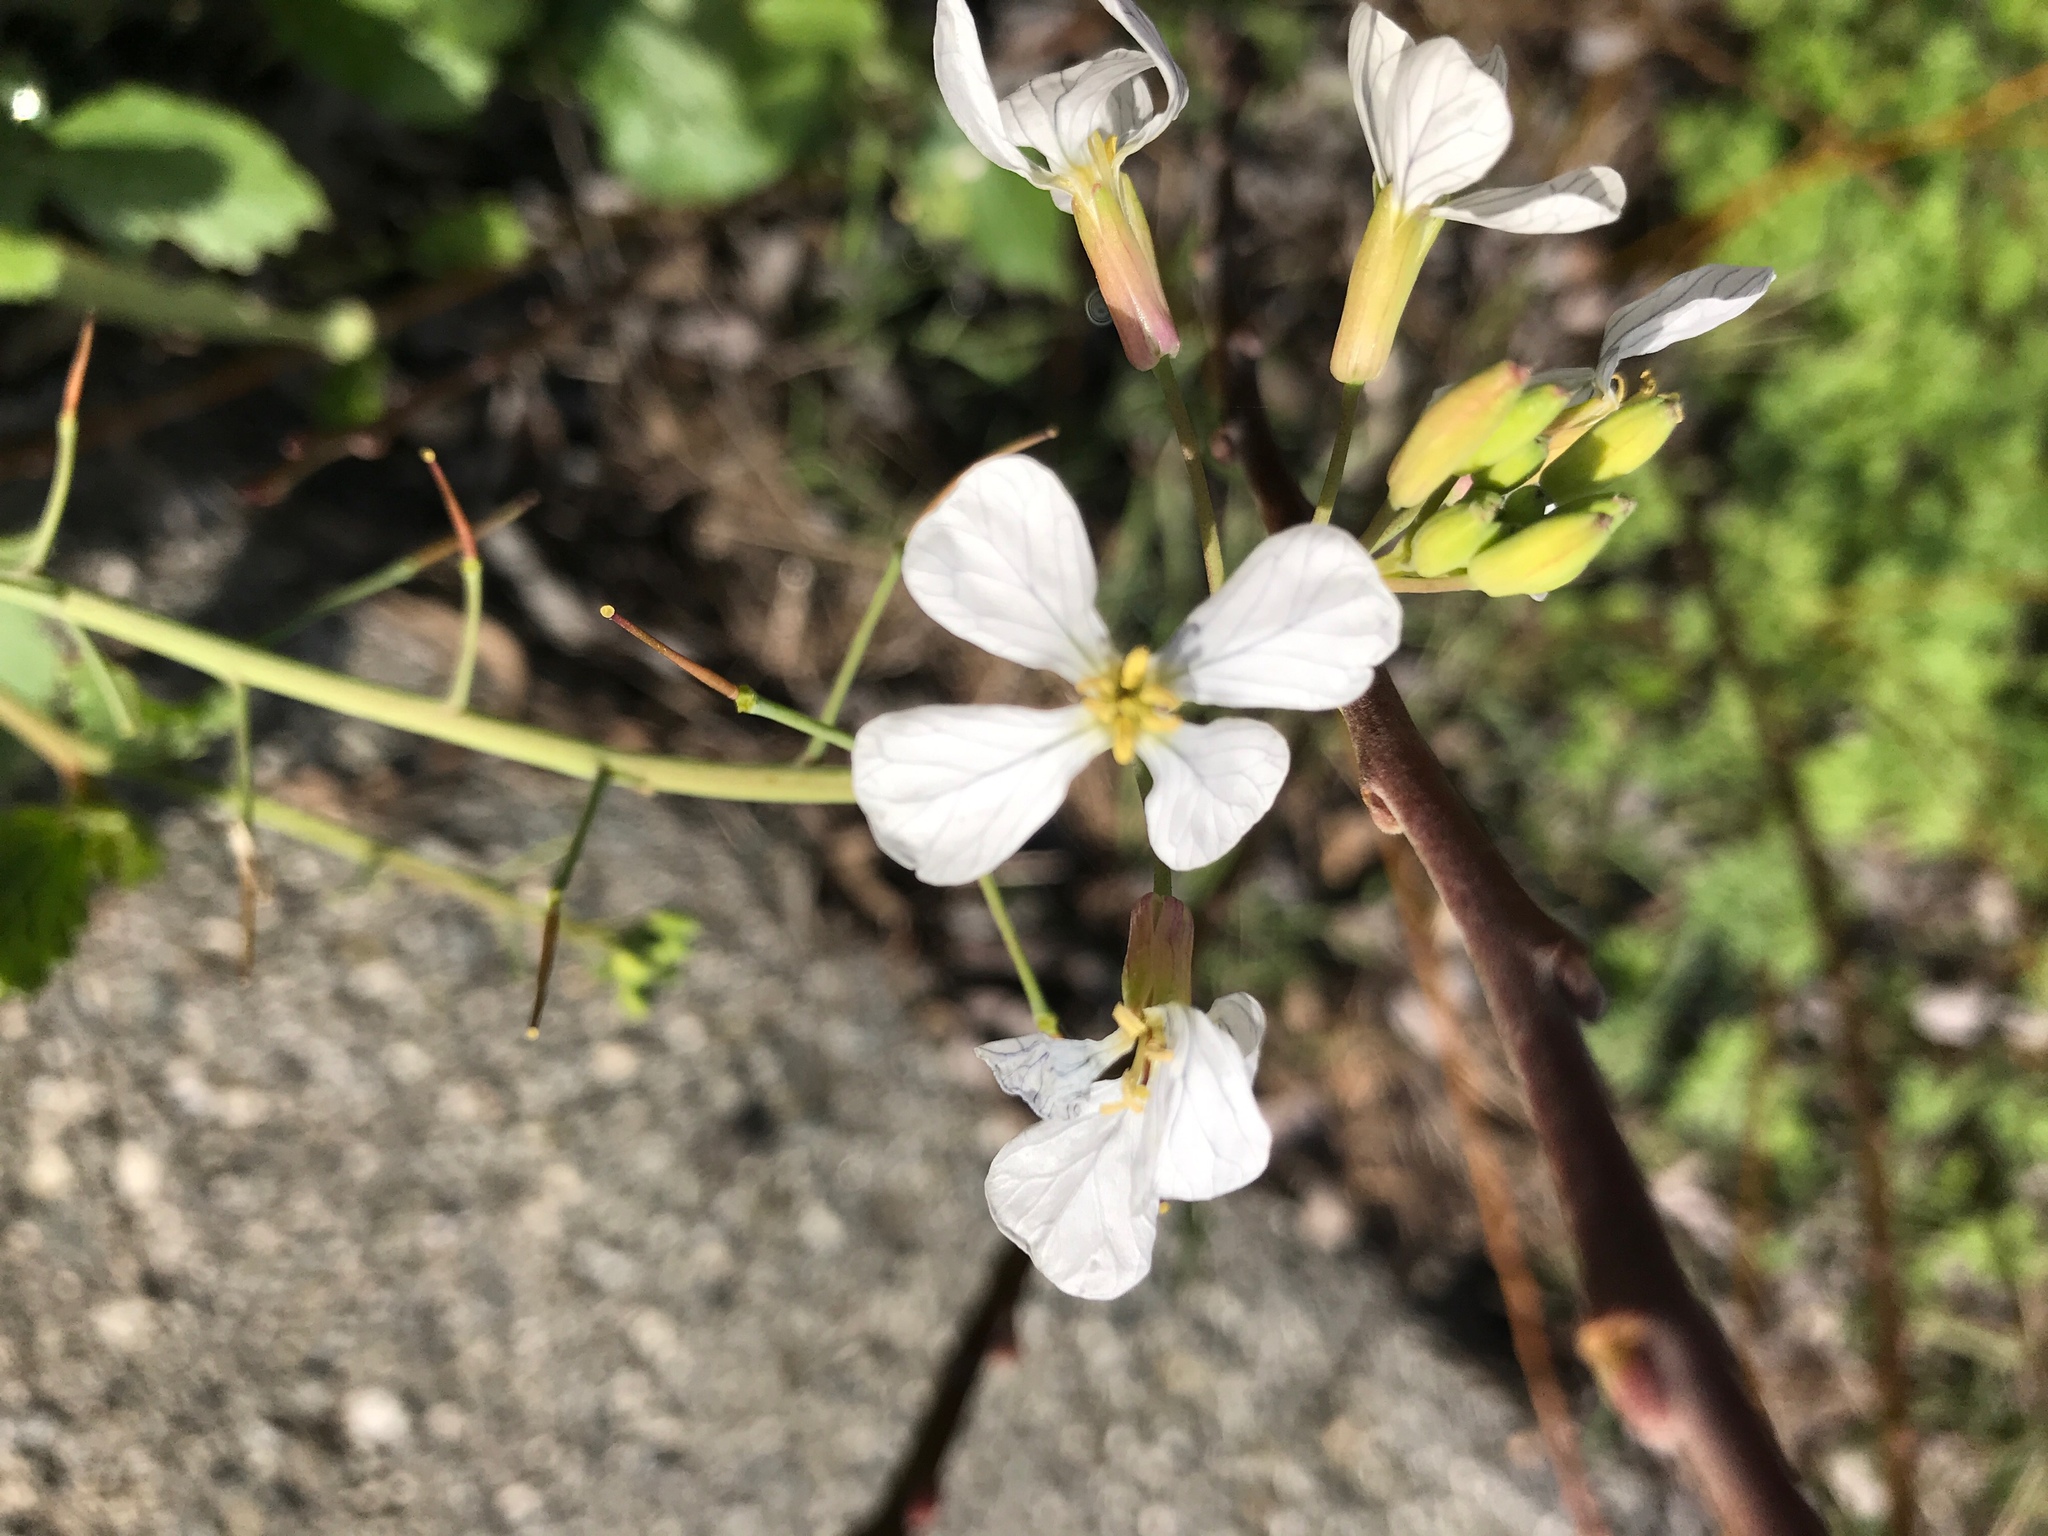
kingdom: Plantae
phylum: Tracheophyta
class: Magnoliopsida
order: Brassicales
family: Brassicaceae
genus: Raphanus
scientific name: Raphanus sativus
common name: Cultivated radish
